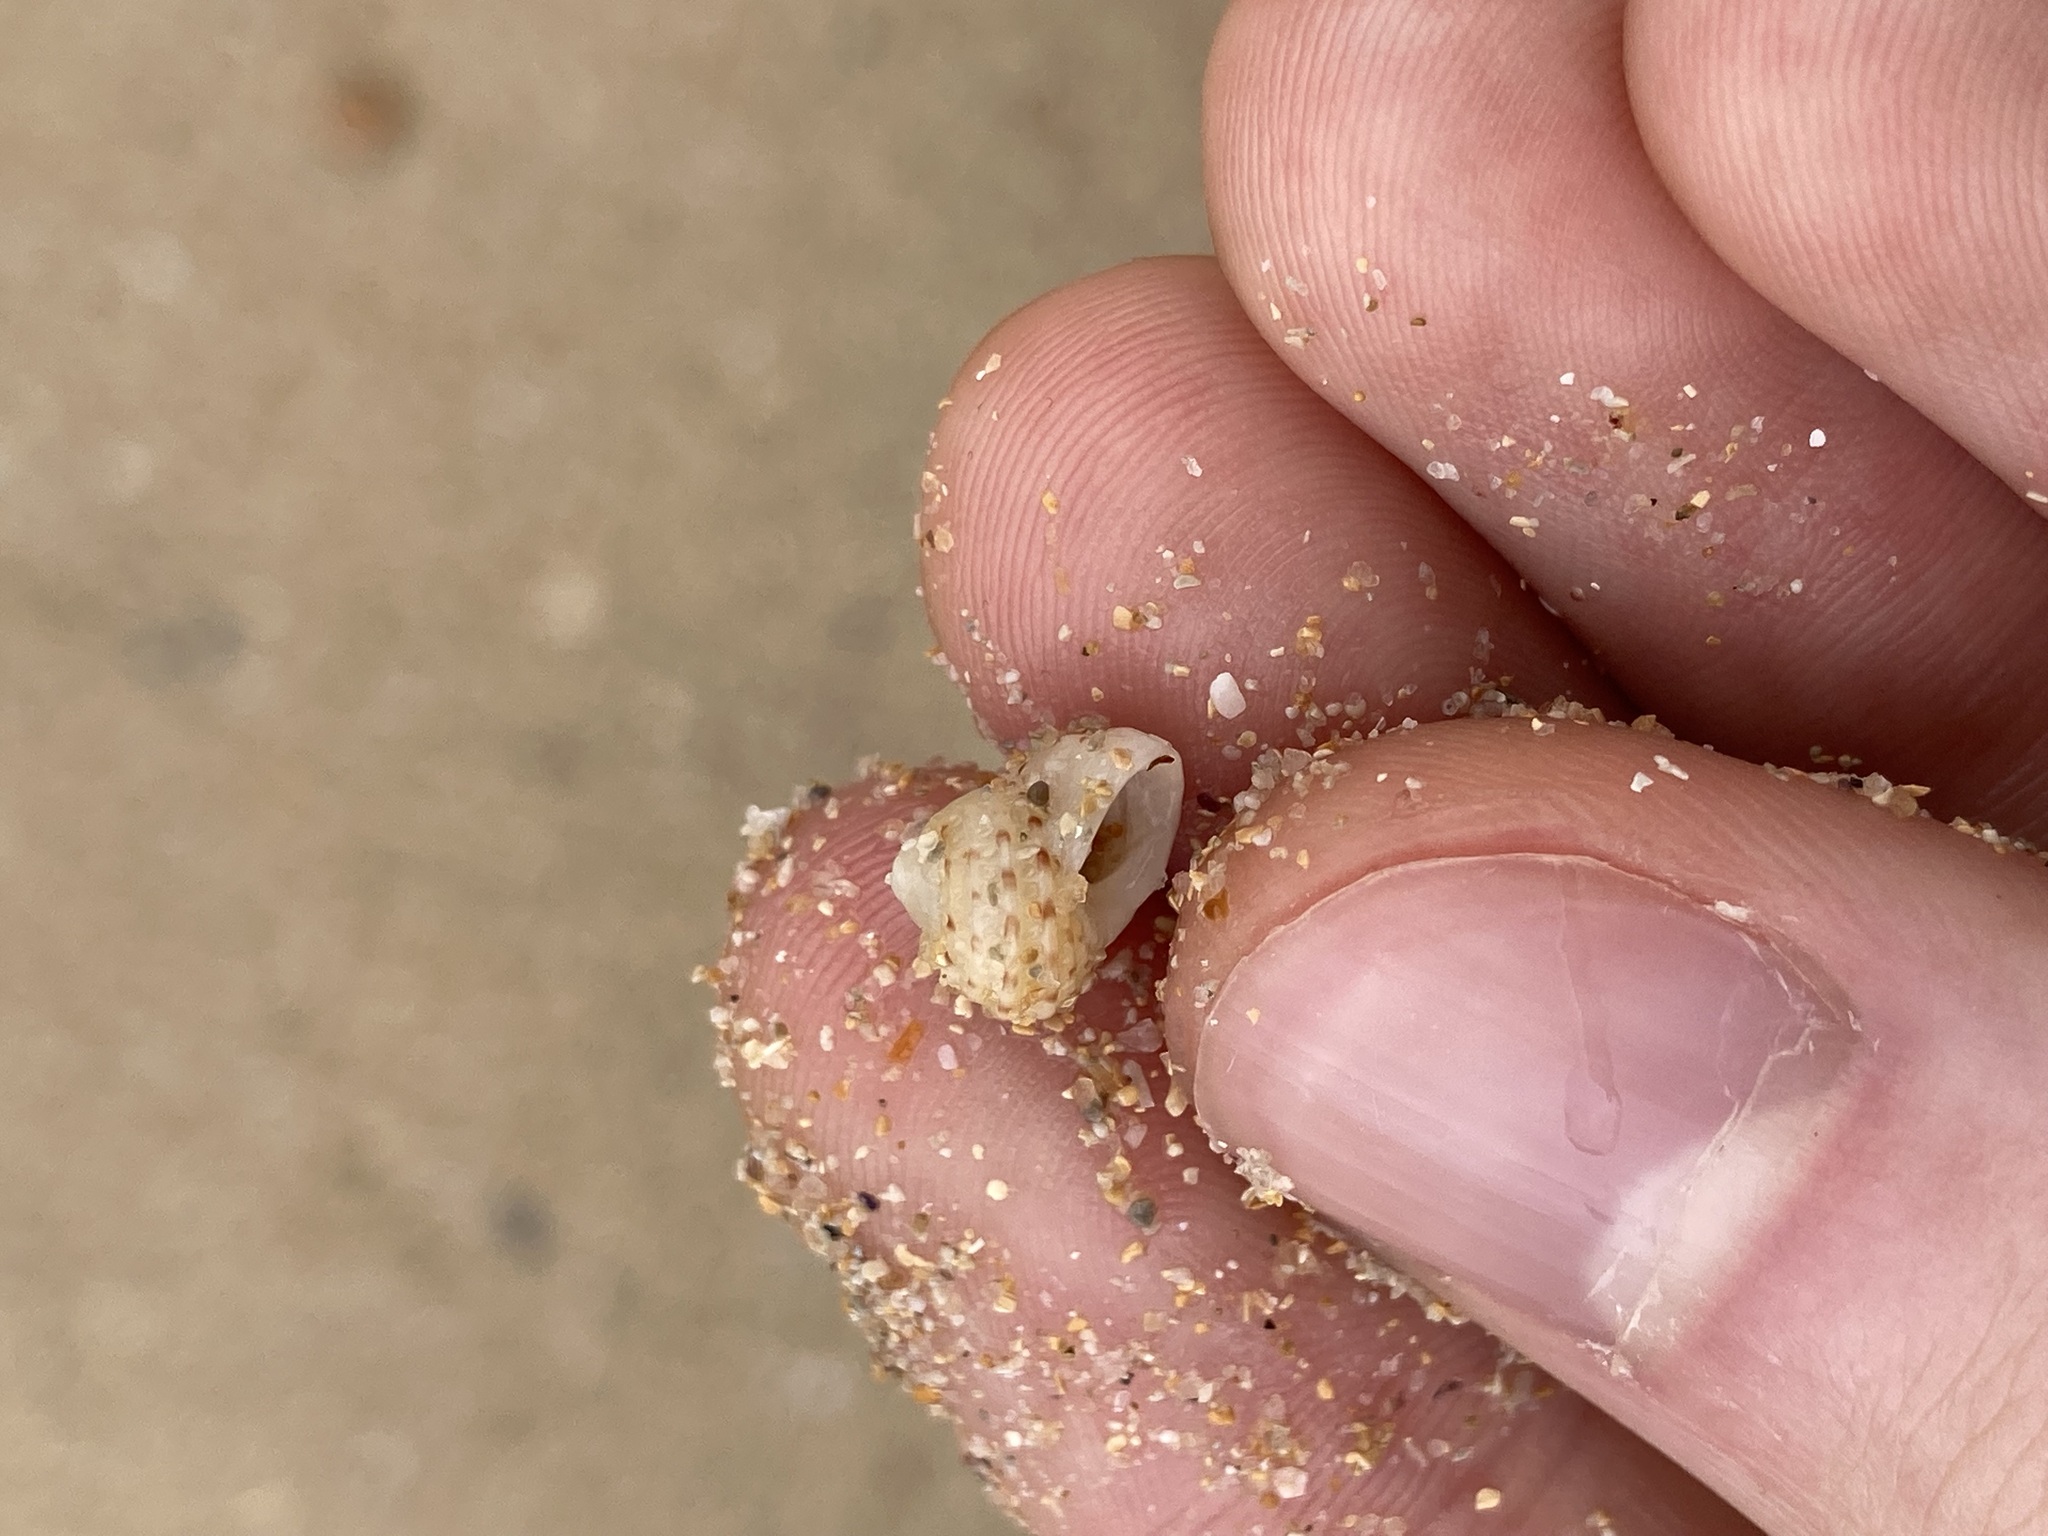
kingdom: Animalia
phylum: Mollusca
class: Gastropoda
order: Seguenziida
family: Chilodontaidae
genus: Vaceuchelus
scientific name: Vaceuchelus ampullus
